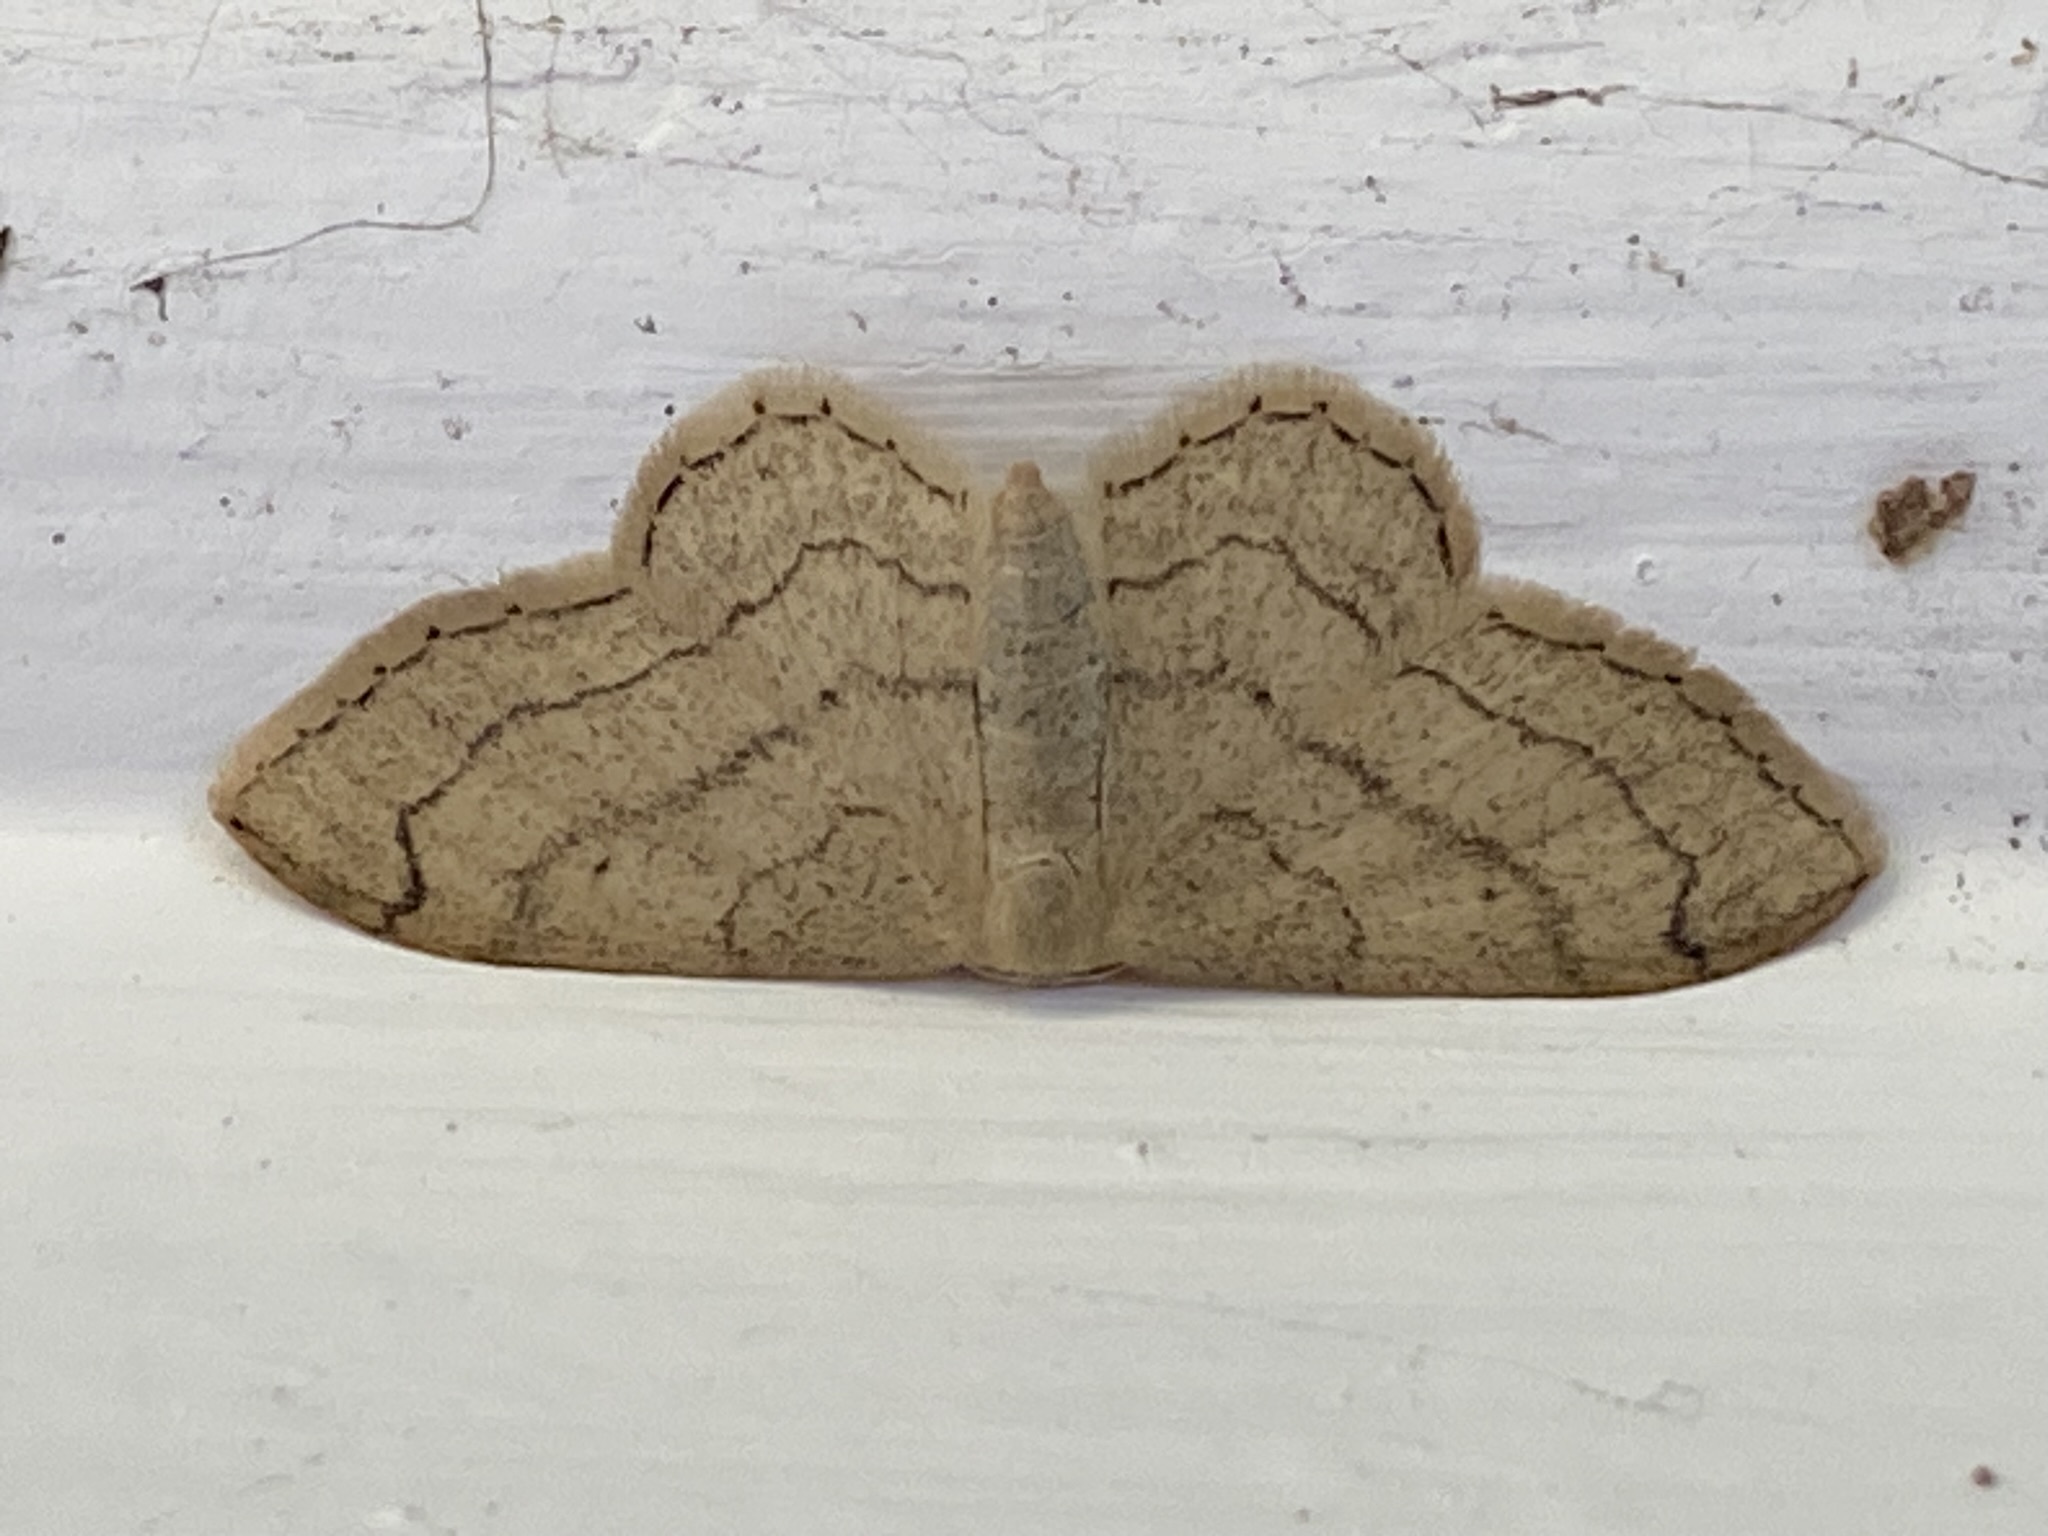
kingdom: Animalia
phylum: Arthropoda
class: Insecta
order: Lepidoptera
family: Geometridae
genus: Idaea
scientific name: Idaea aversata
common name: Riband wave
